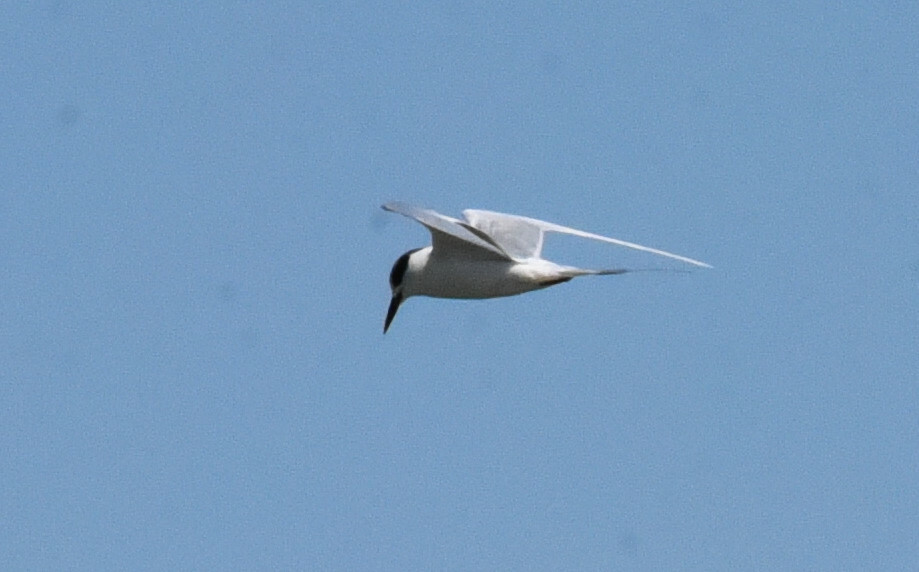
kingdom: Animalia
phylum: Chordata
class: Aves
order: Charadriiformes
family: Laridae
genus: Sterna
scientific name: Sterna forsteri
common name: Forster's tern
